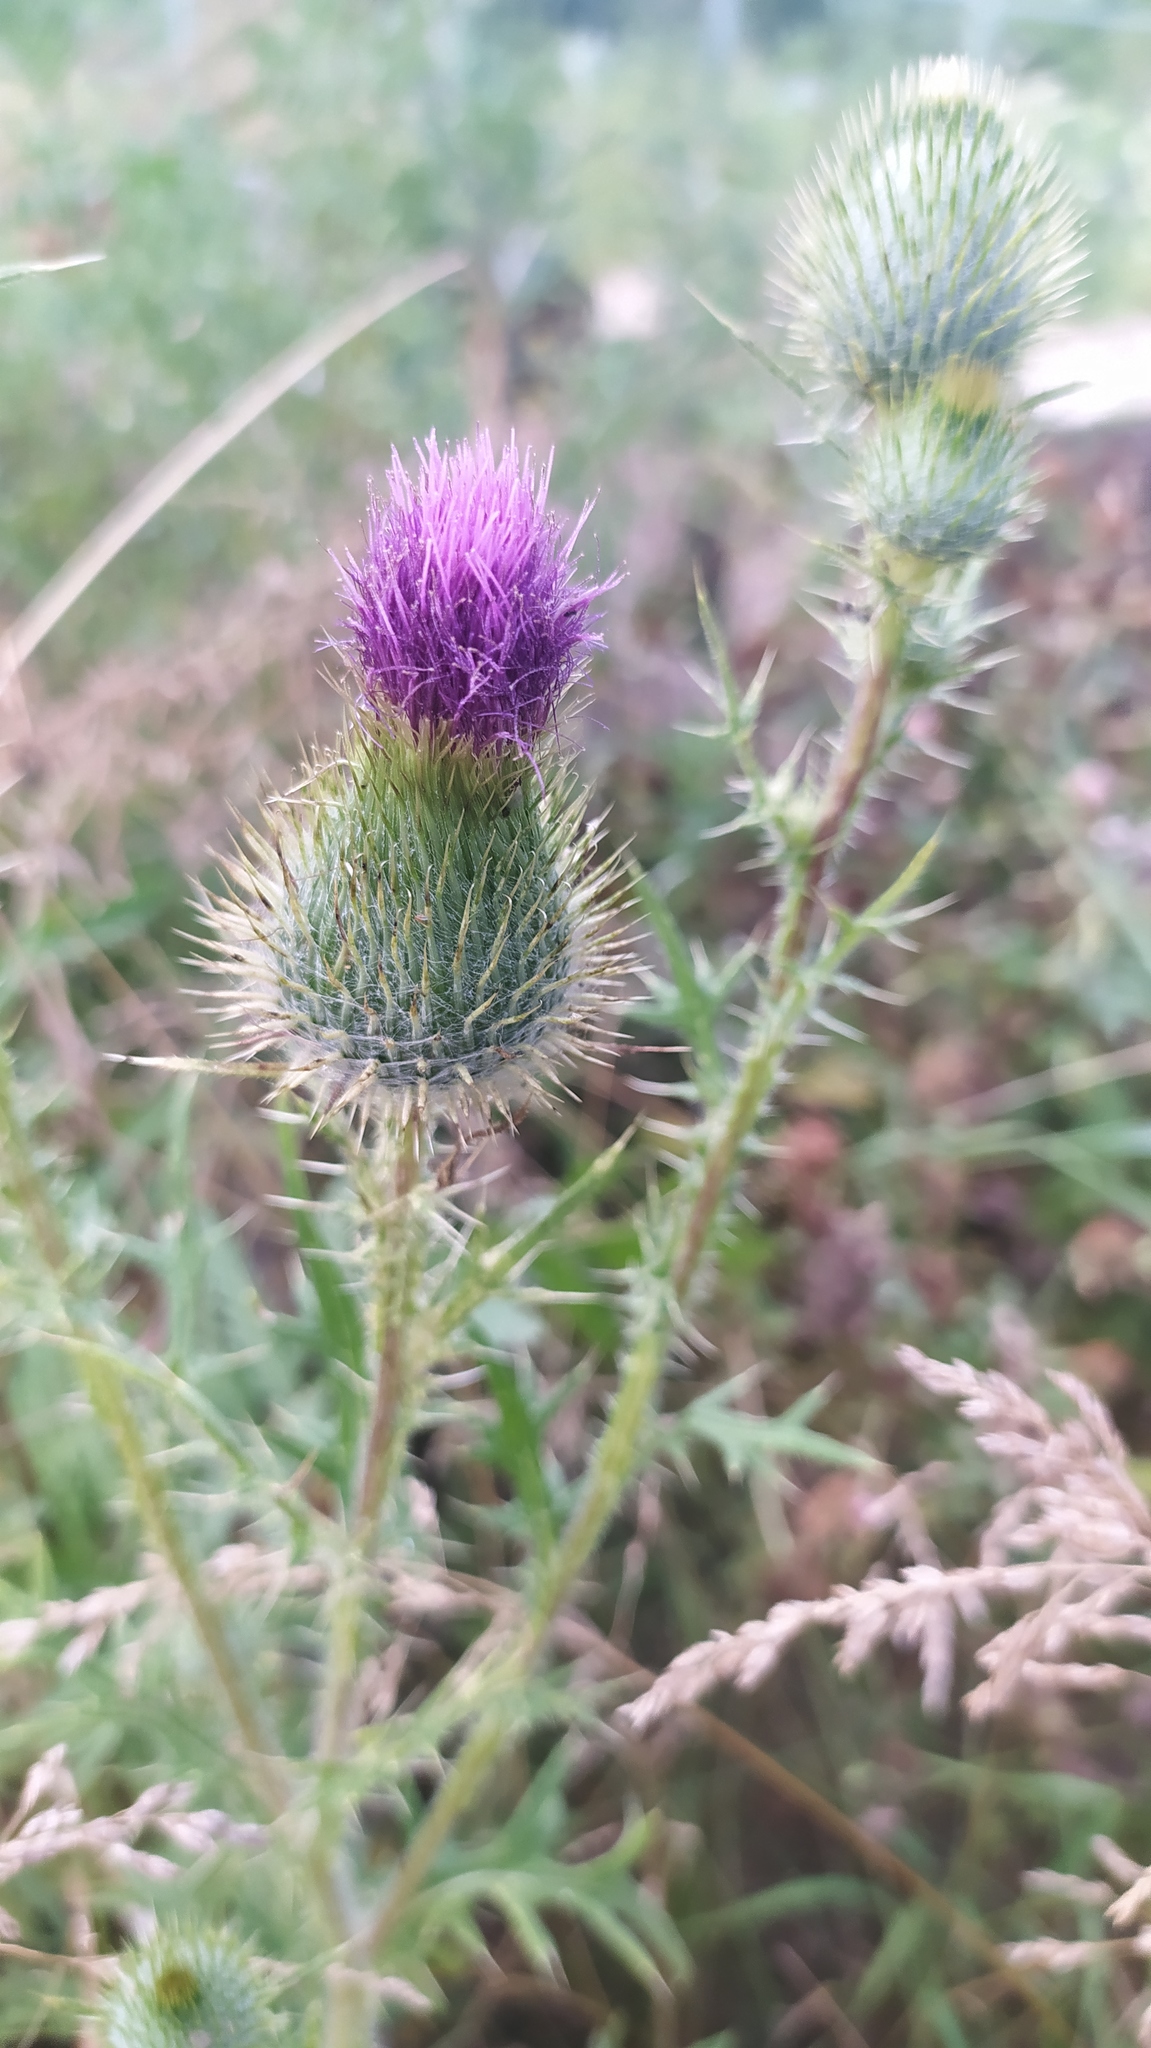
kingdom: Plantae
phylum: Tracheophyta
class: Magnoliopsida
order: Asterales
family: Asteraceae
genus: Cirsium
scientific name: Cirsium vulgare
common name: Bull thistle
